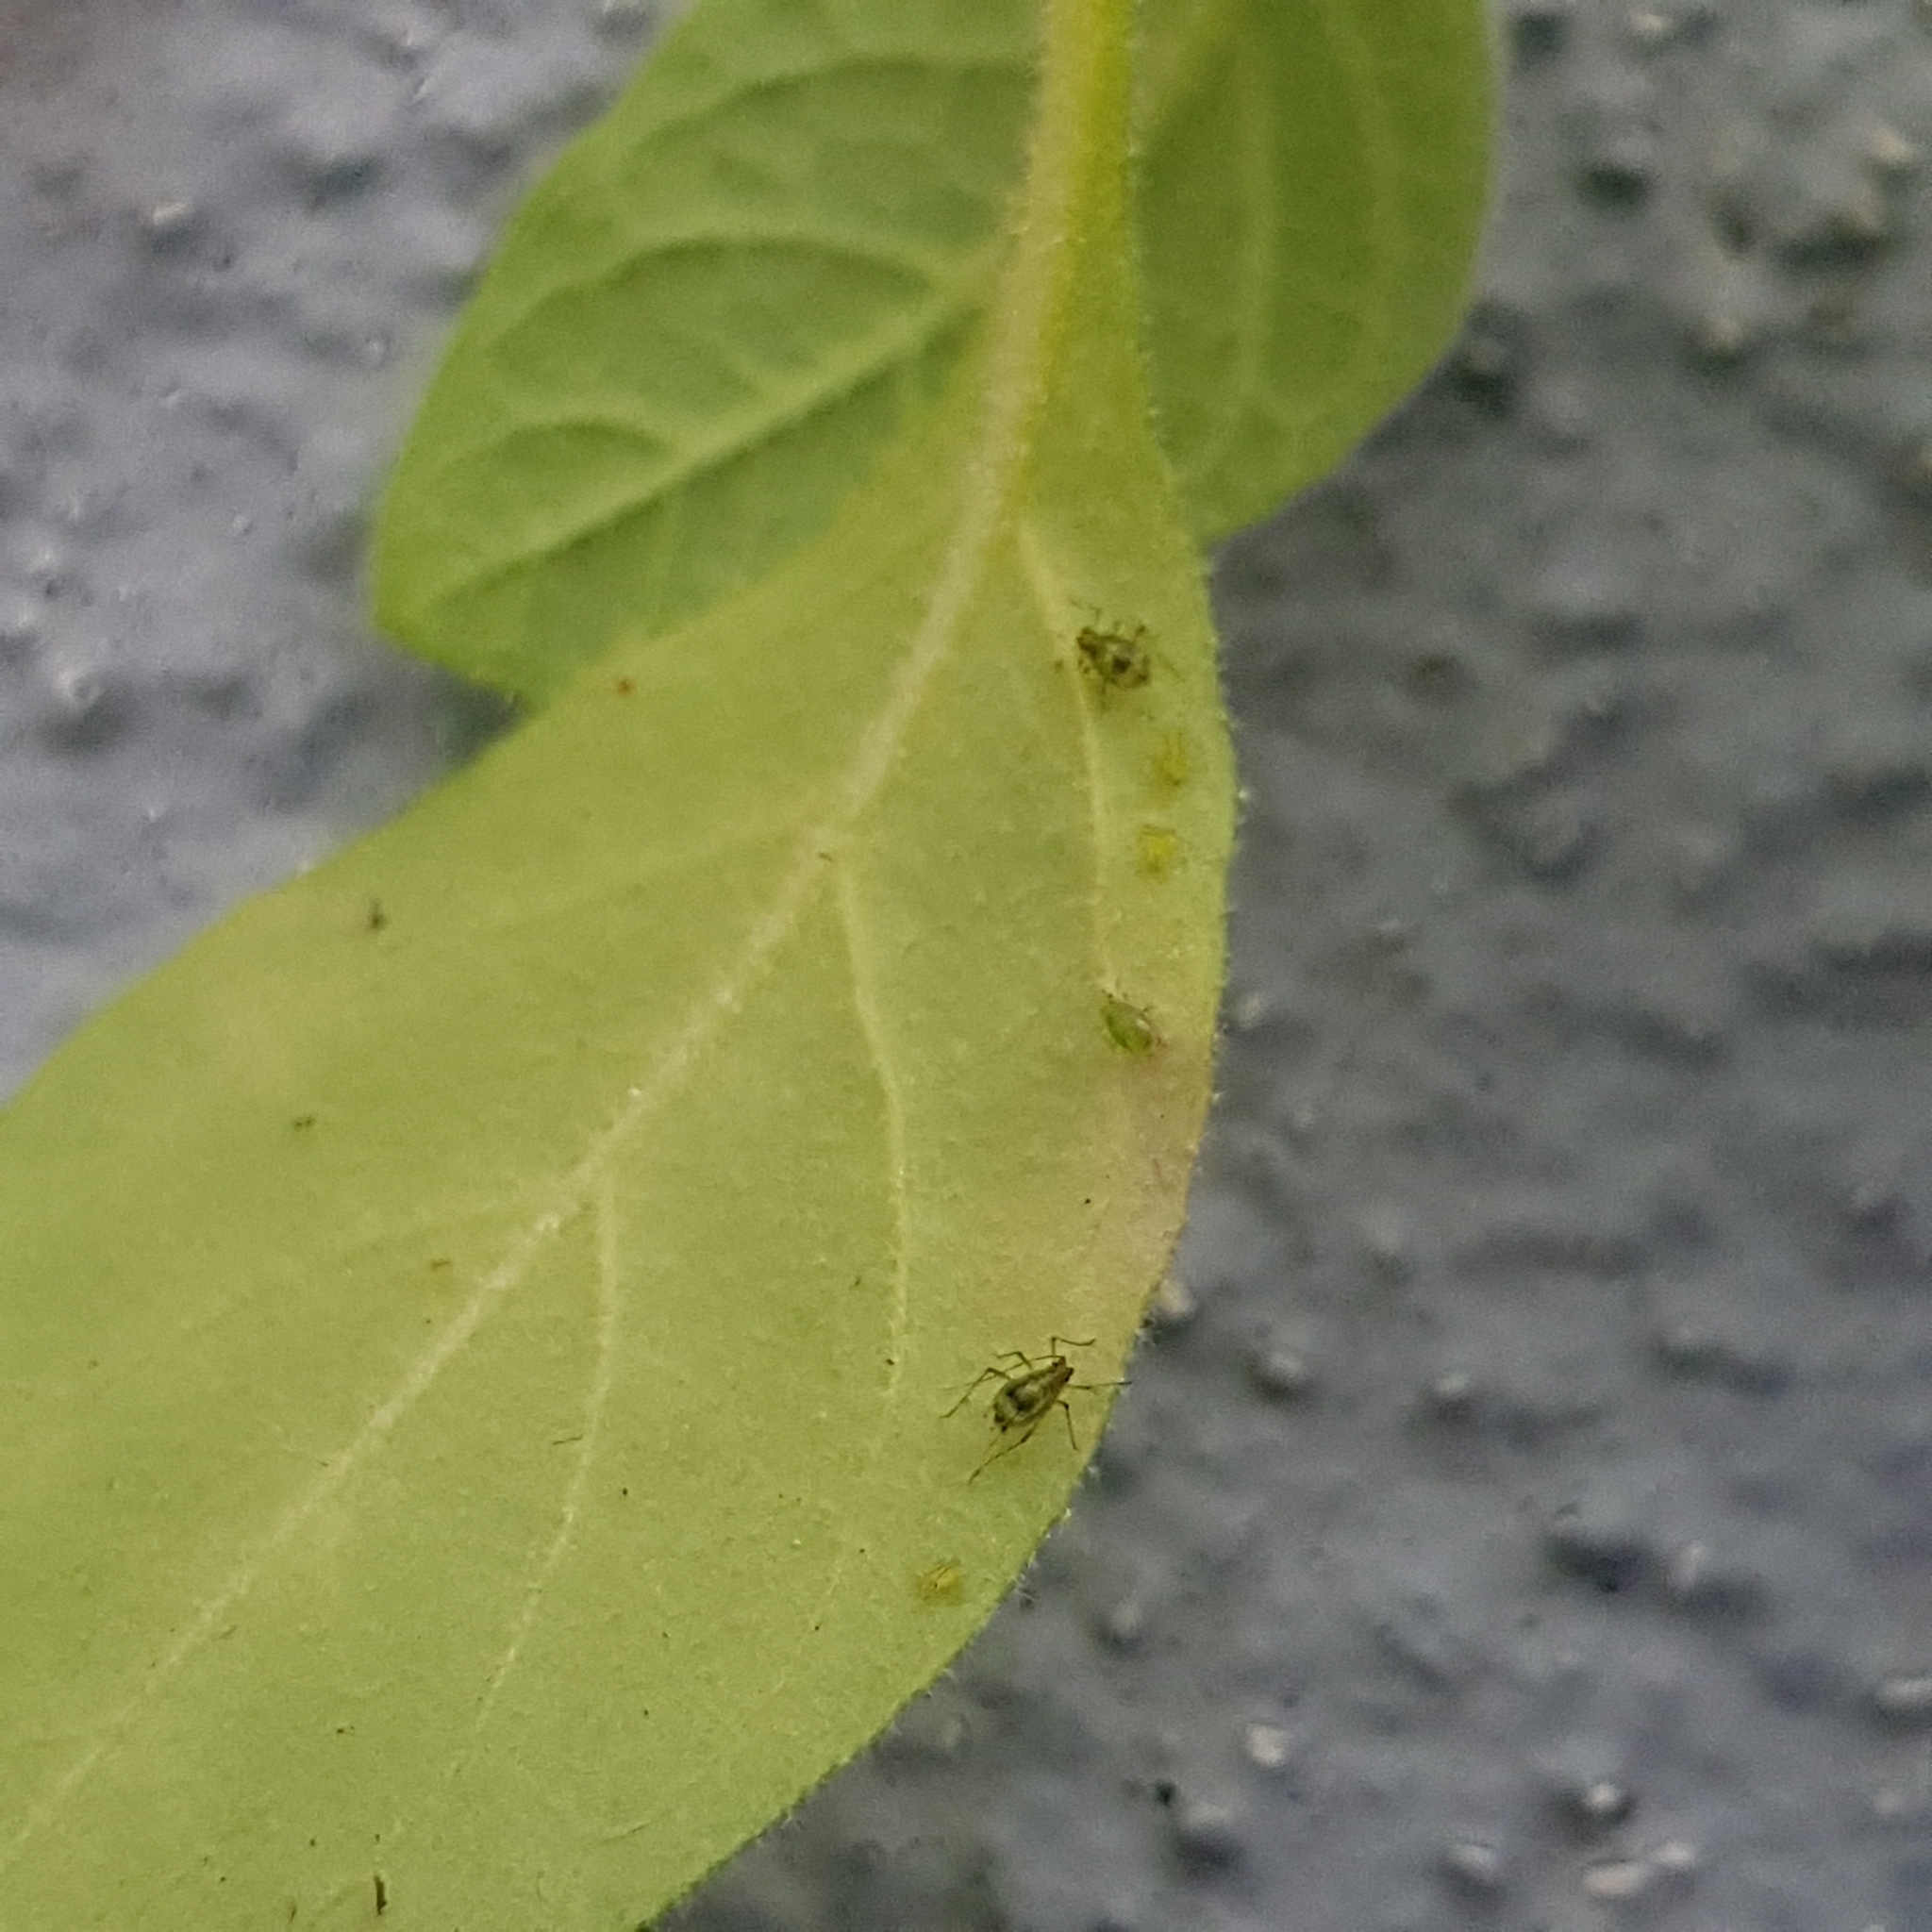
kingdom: Plantae
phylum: Tracheophyta
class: Magnoliopsida
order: Solanales
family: Solanaceae
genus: Solanum
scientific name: Solanum mauritianum
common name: Earleaf nightshade
